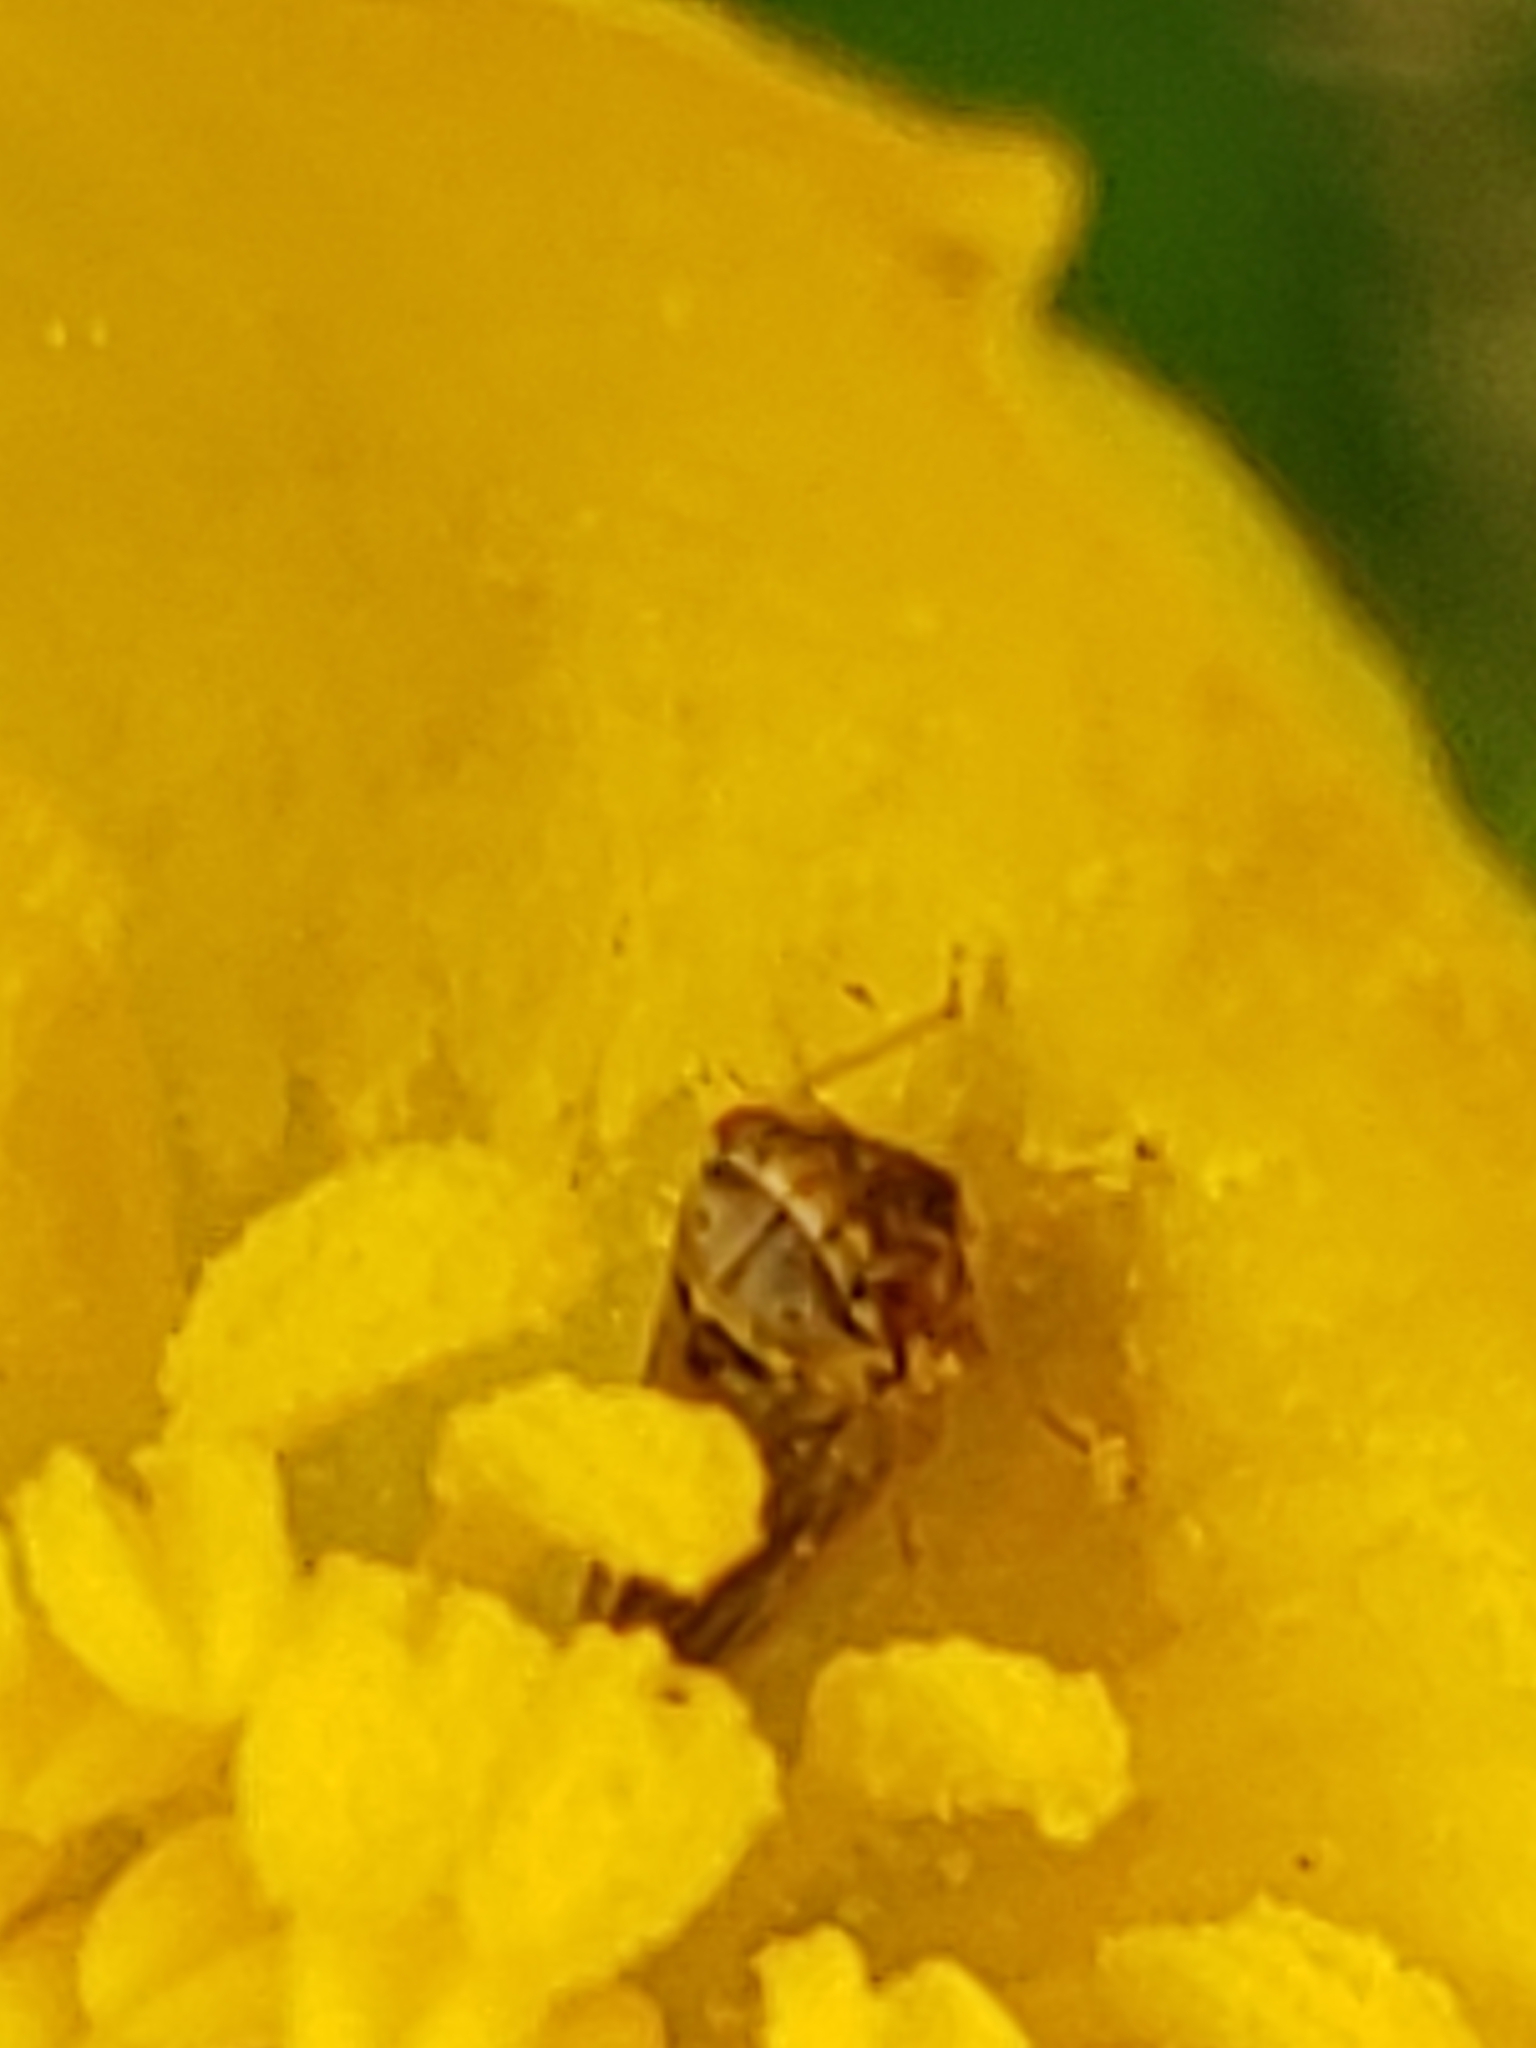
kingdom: Animalia
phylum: Arthropoda
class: Insecta
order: Hemiptera
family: Cicadellidae
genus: Agalliopsis
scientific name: Agalliopsis ancistra
